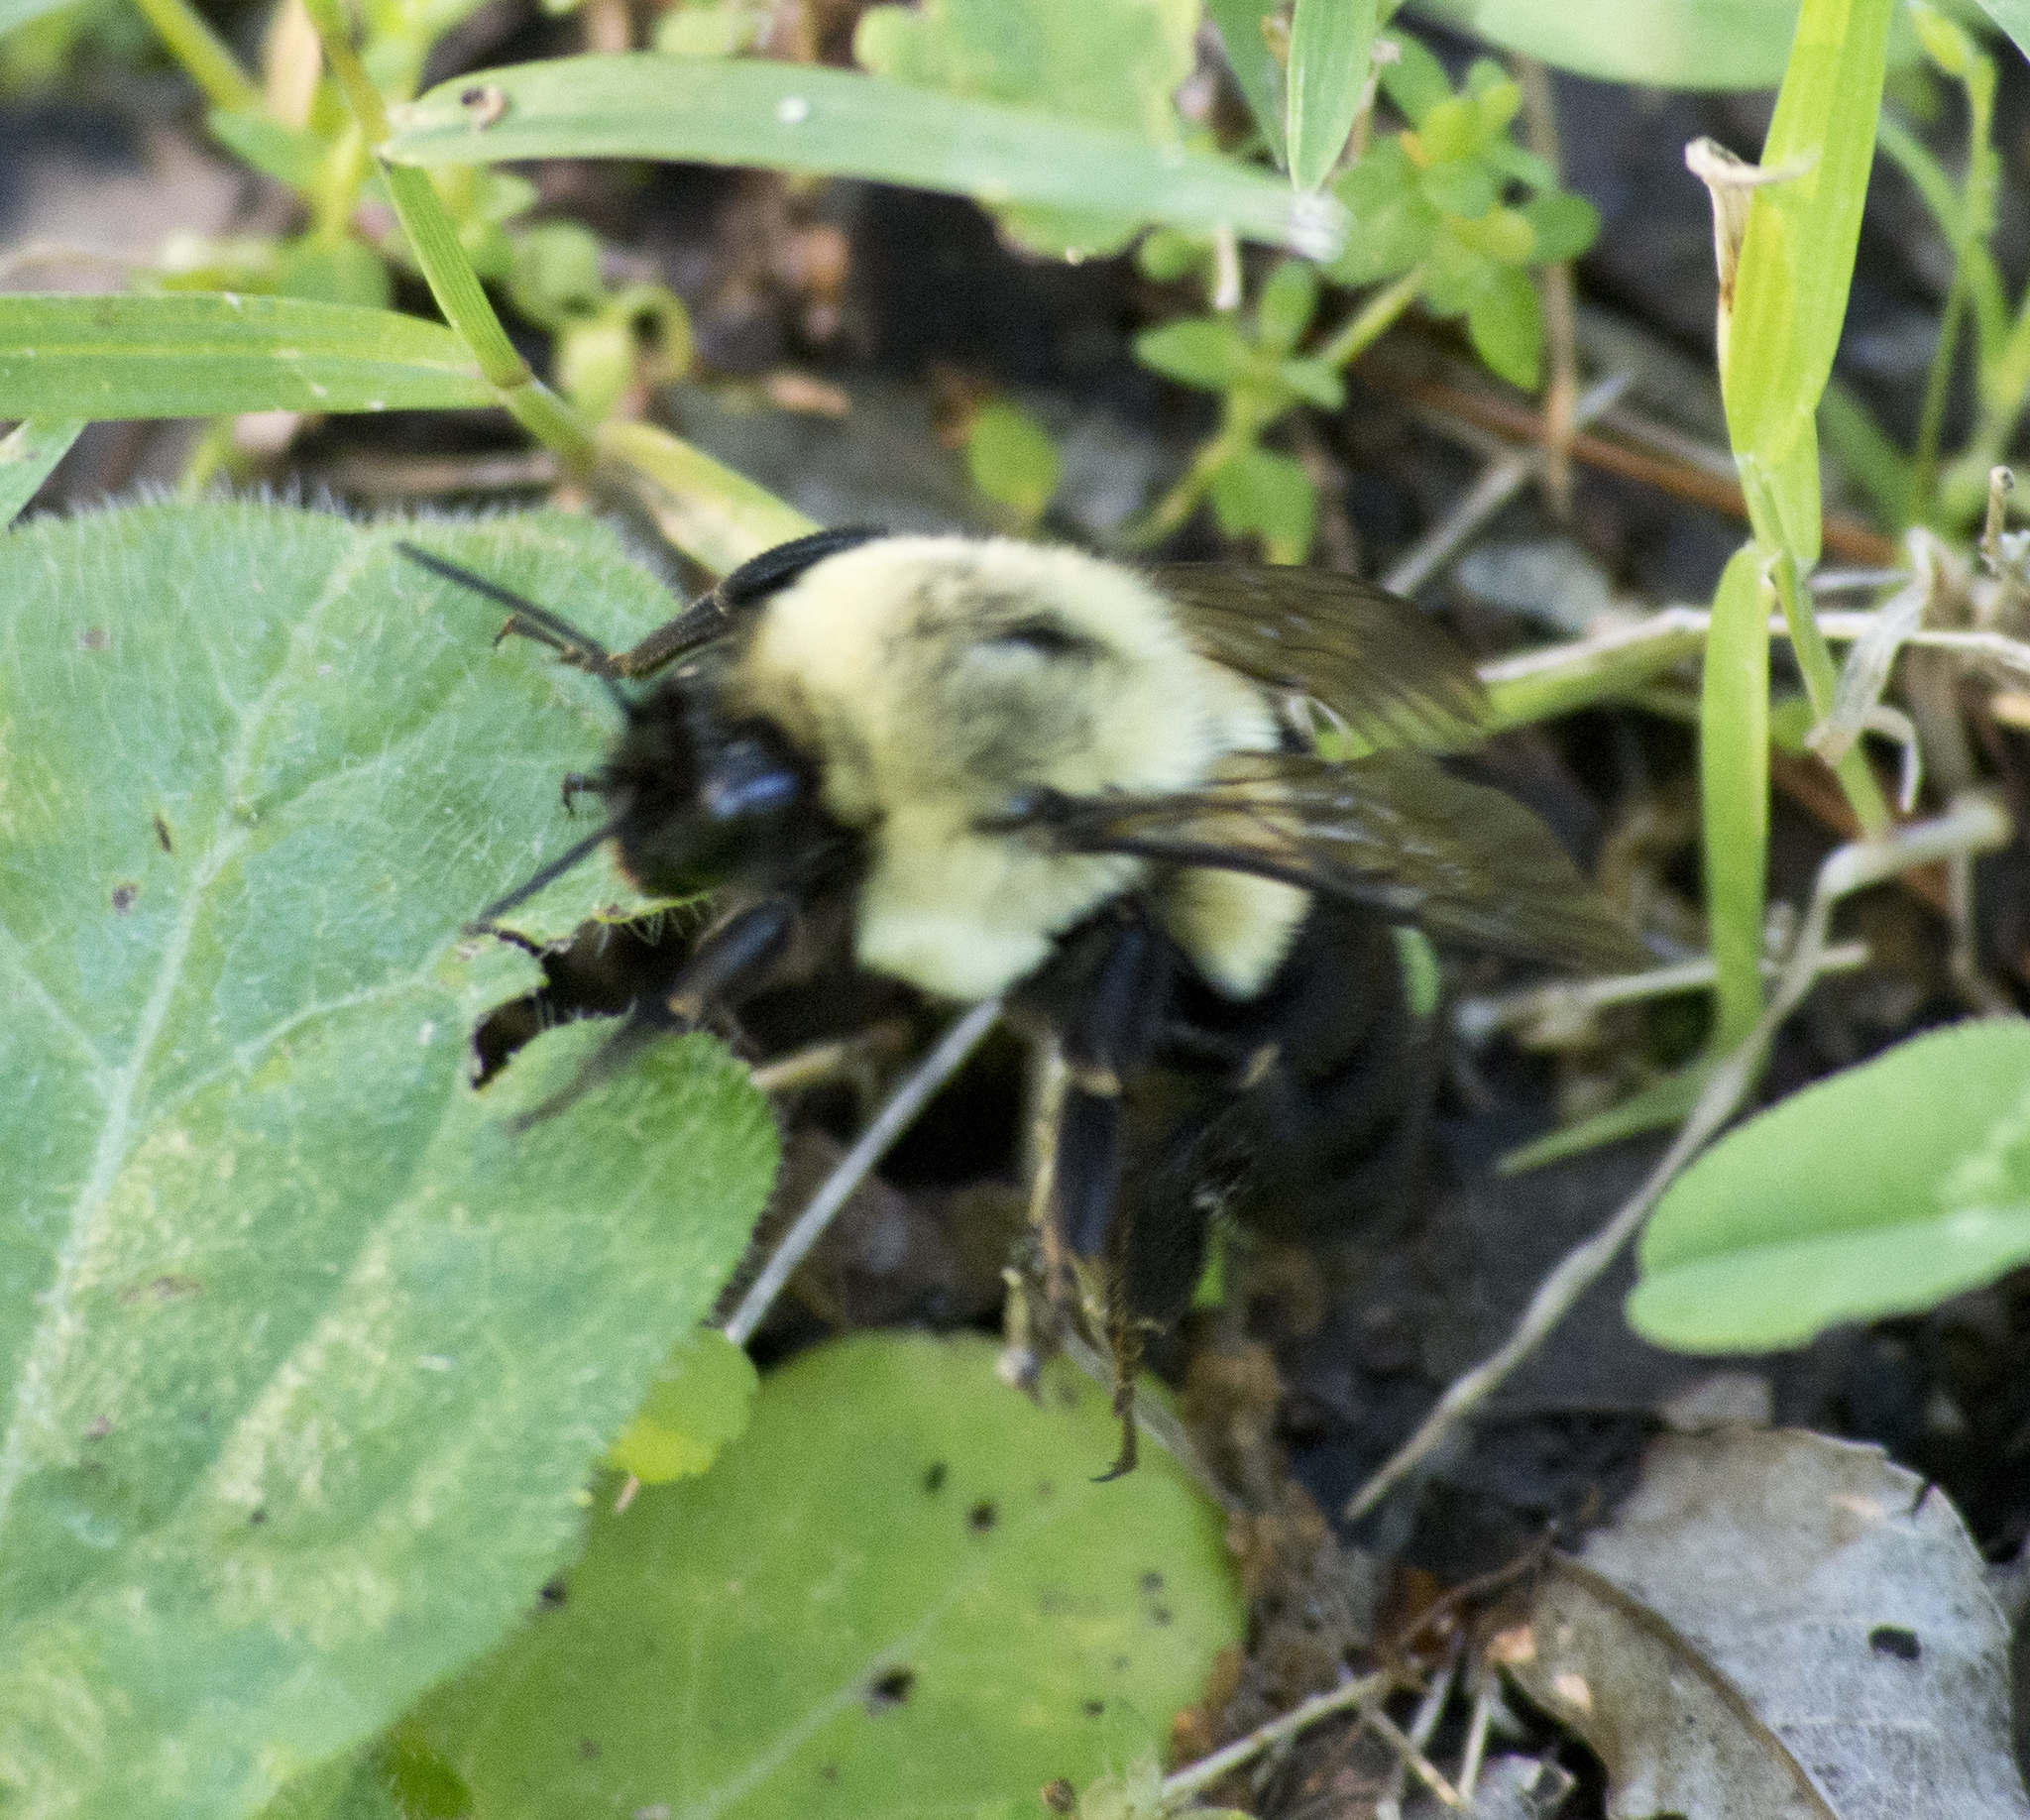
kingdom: Animalia
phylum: Arthropoda
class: Insecta
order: Hymenoptera
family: Apidae
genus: Bombus
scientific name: Bombus impatiens
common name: Common eastern bumble bee
